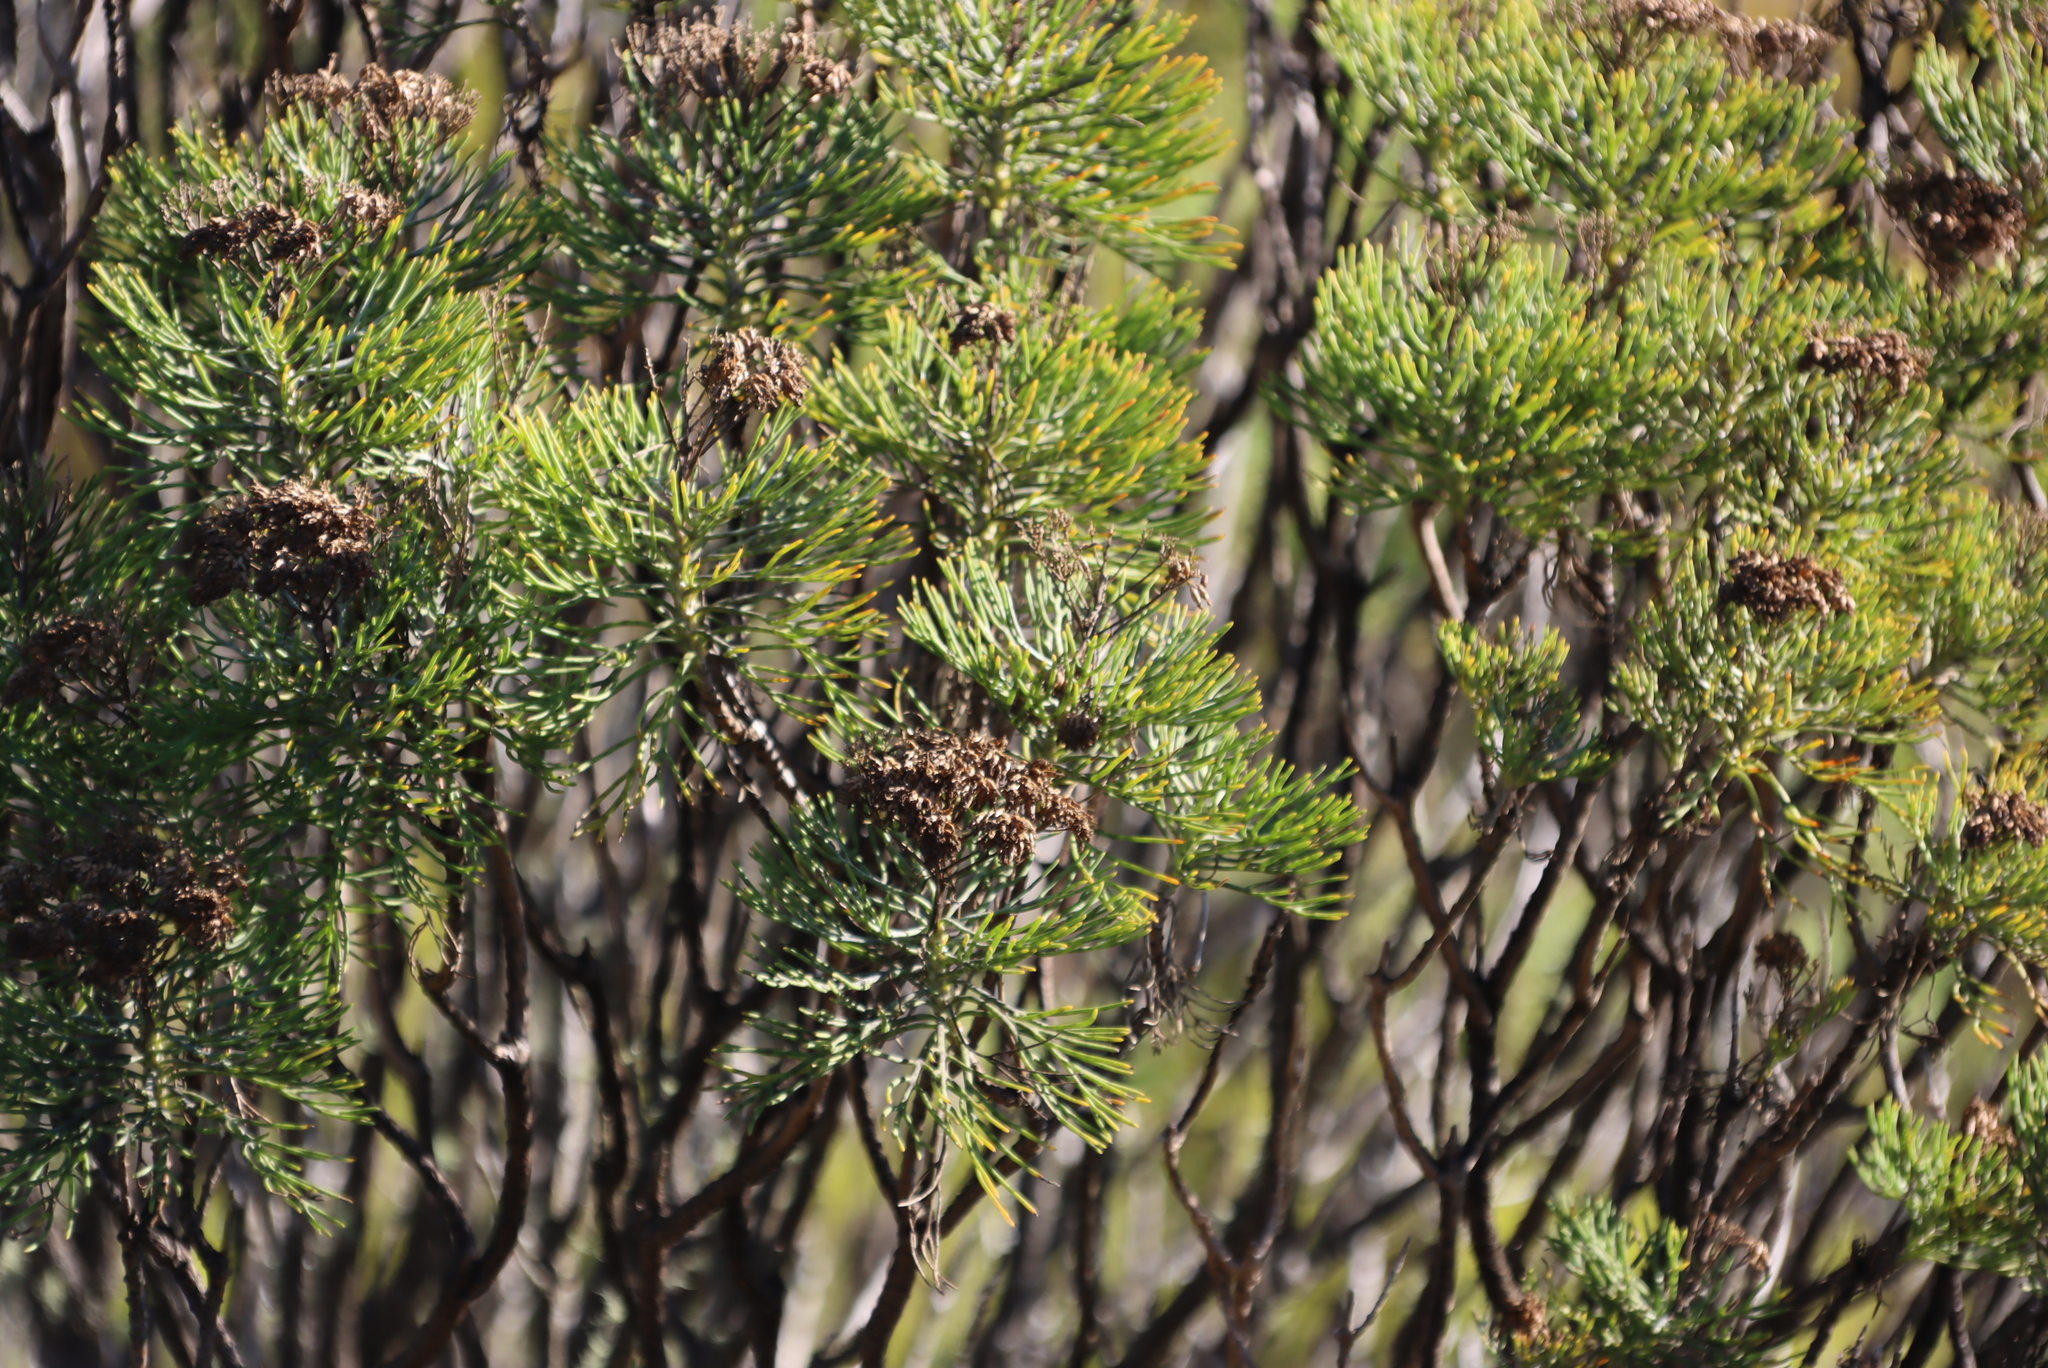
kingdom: Plantae
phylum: Tracheophyta
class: Magnoliopsida
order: Asterales
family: Asteraceae
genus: Hymenolepis
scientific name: Hymenolepis crithmifolia
